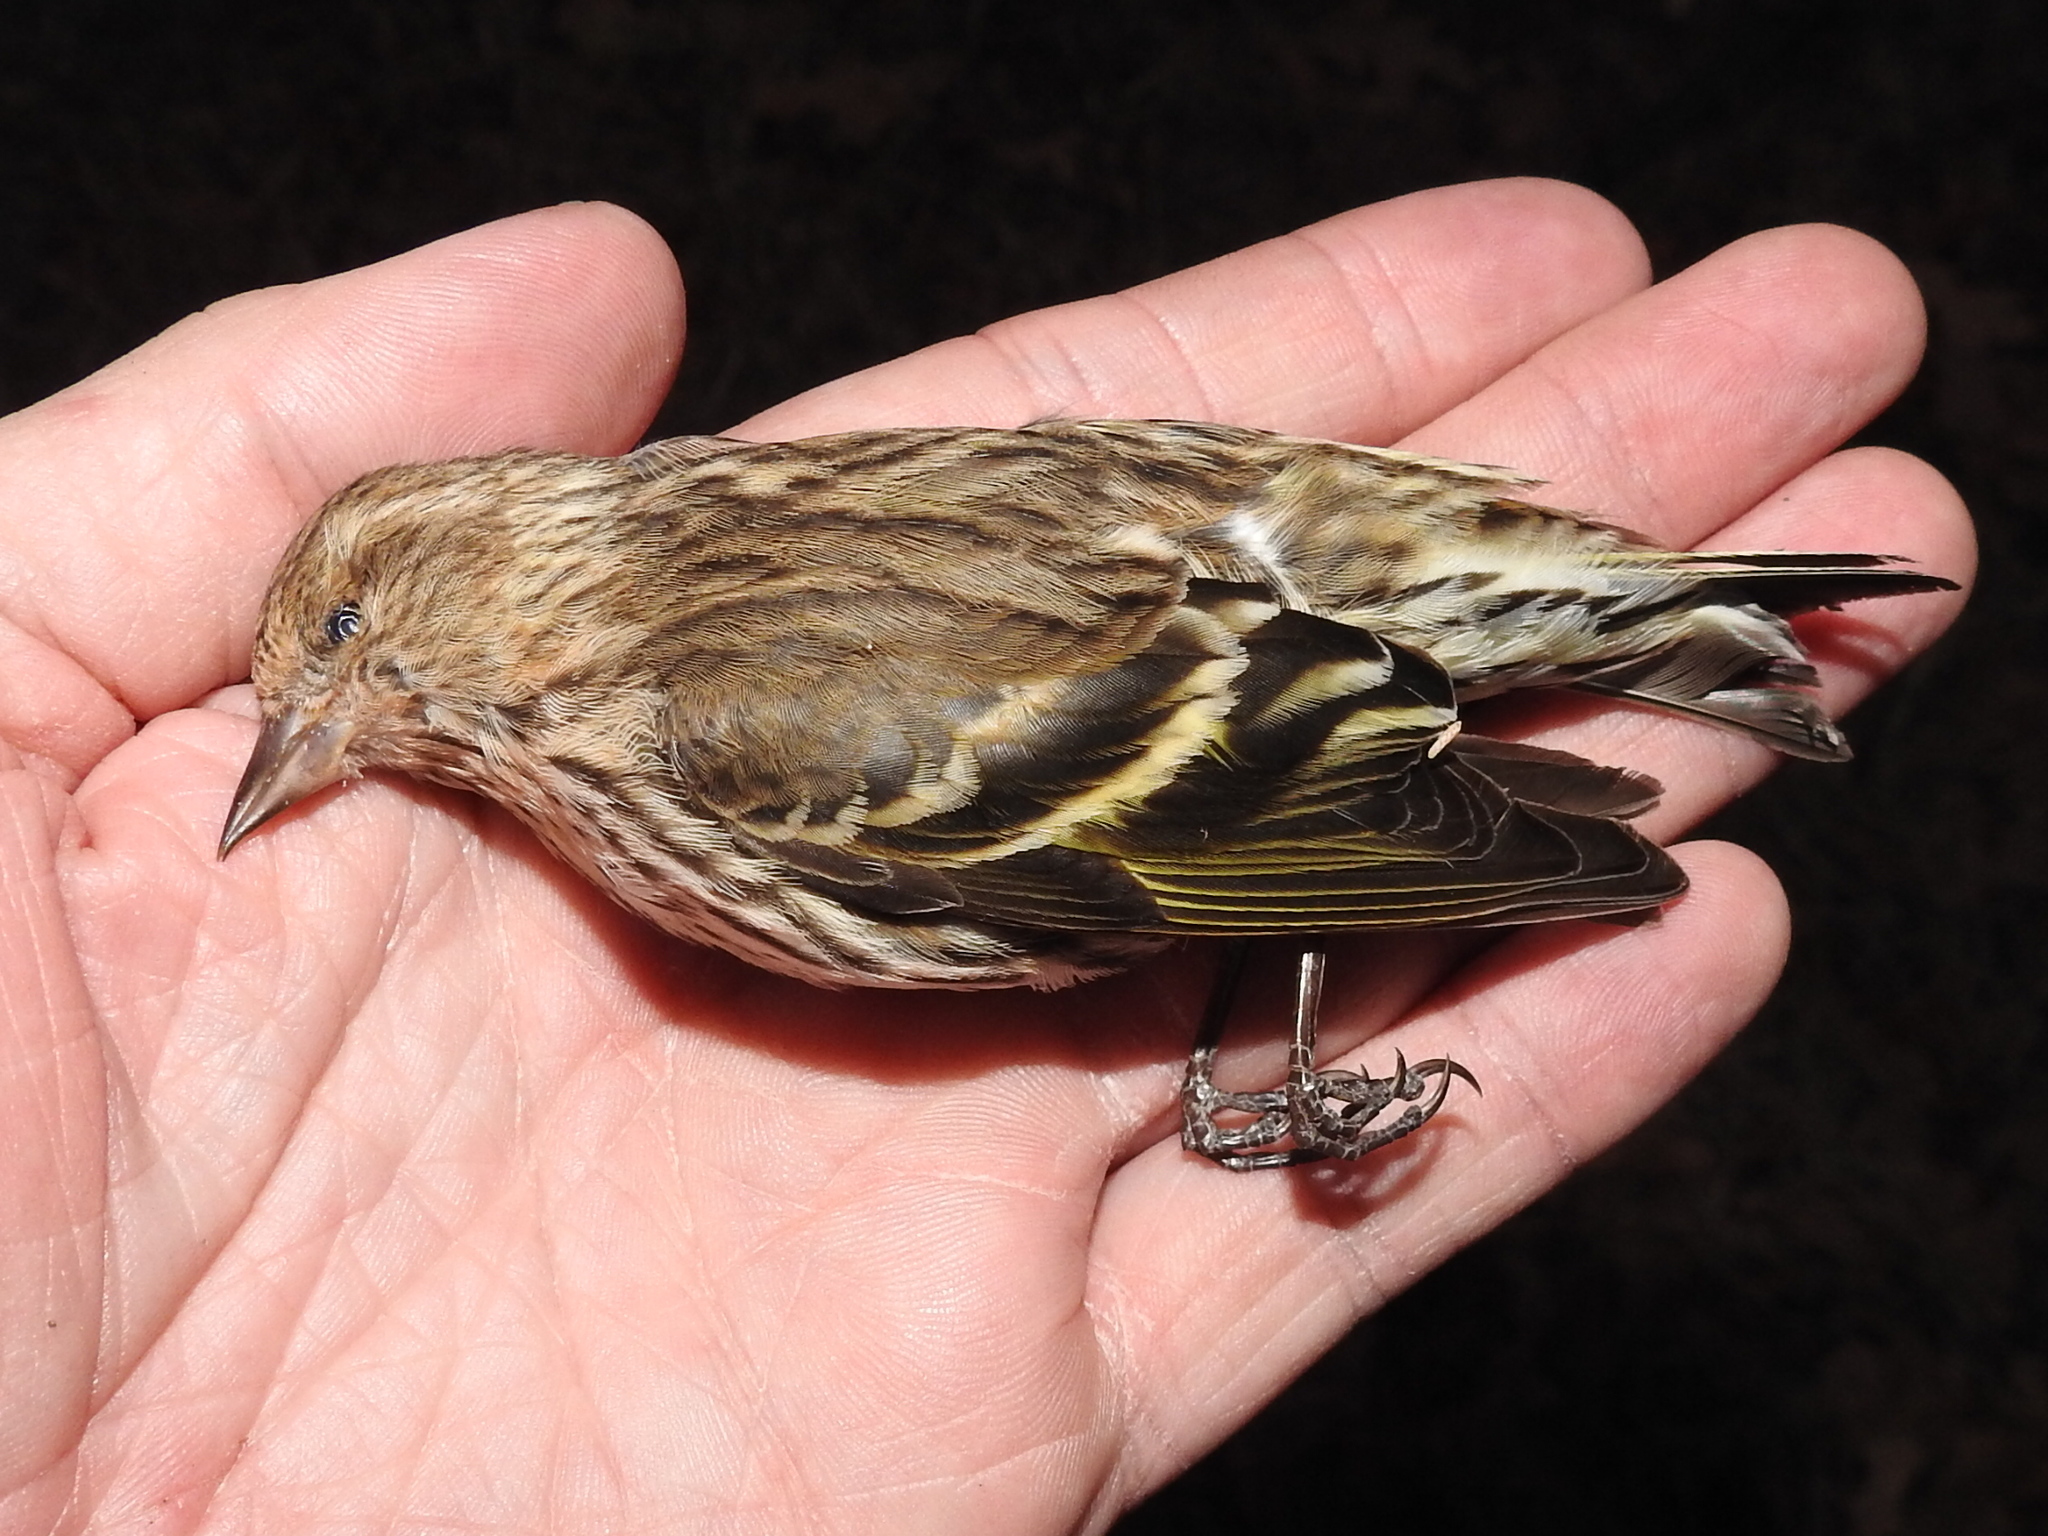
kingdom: Animalia
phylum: Chordata
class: Aves
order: Passeriformes
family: Fringillidae
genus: Spinus
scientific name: Spinus pinus
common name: Pine siskin
